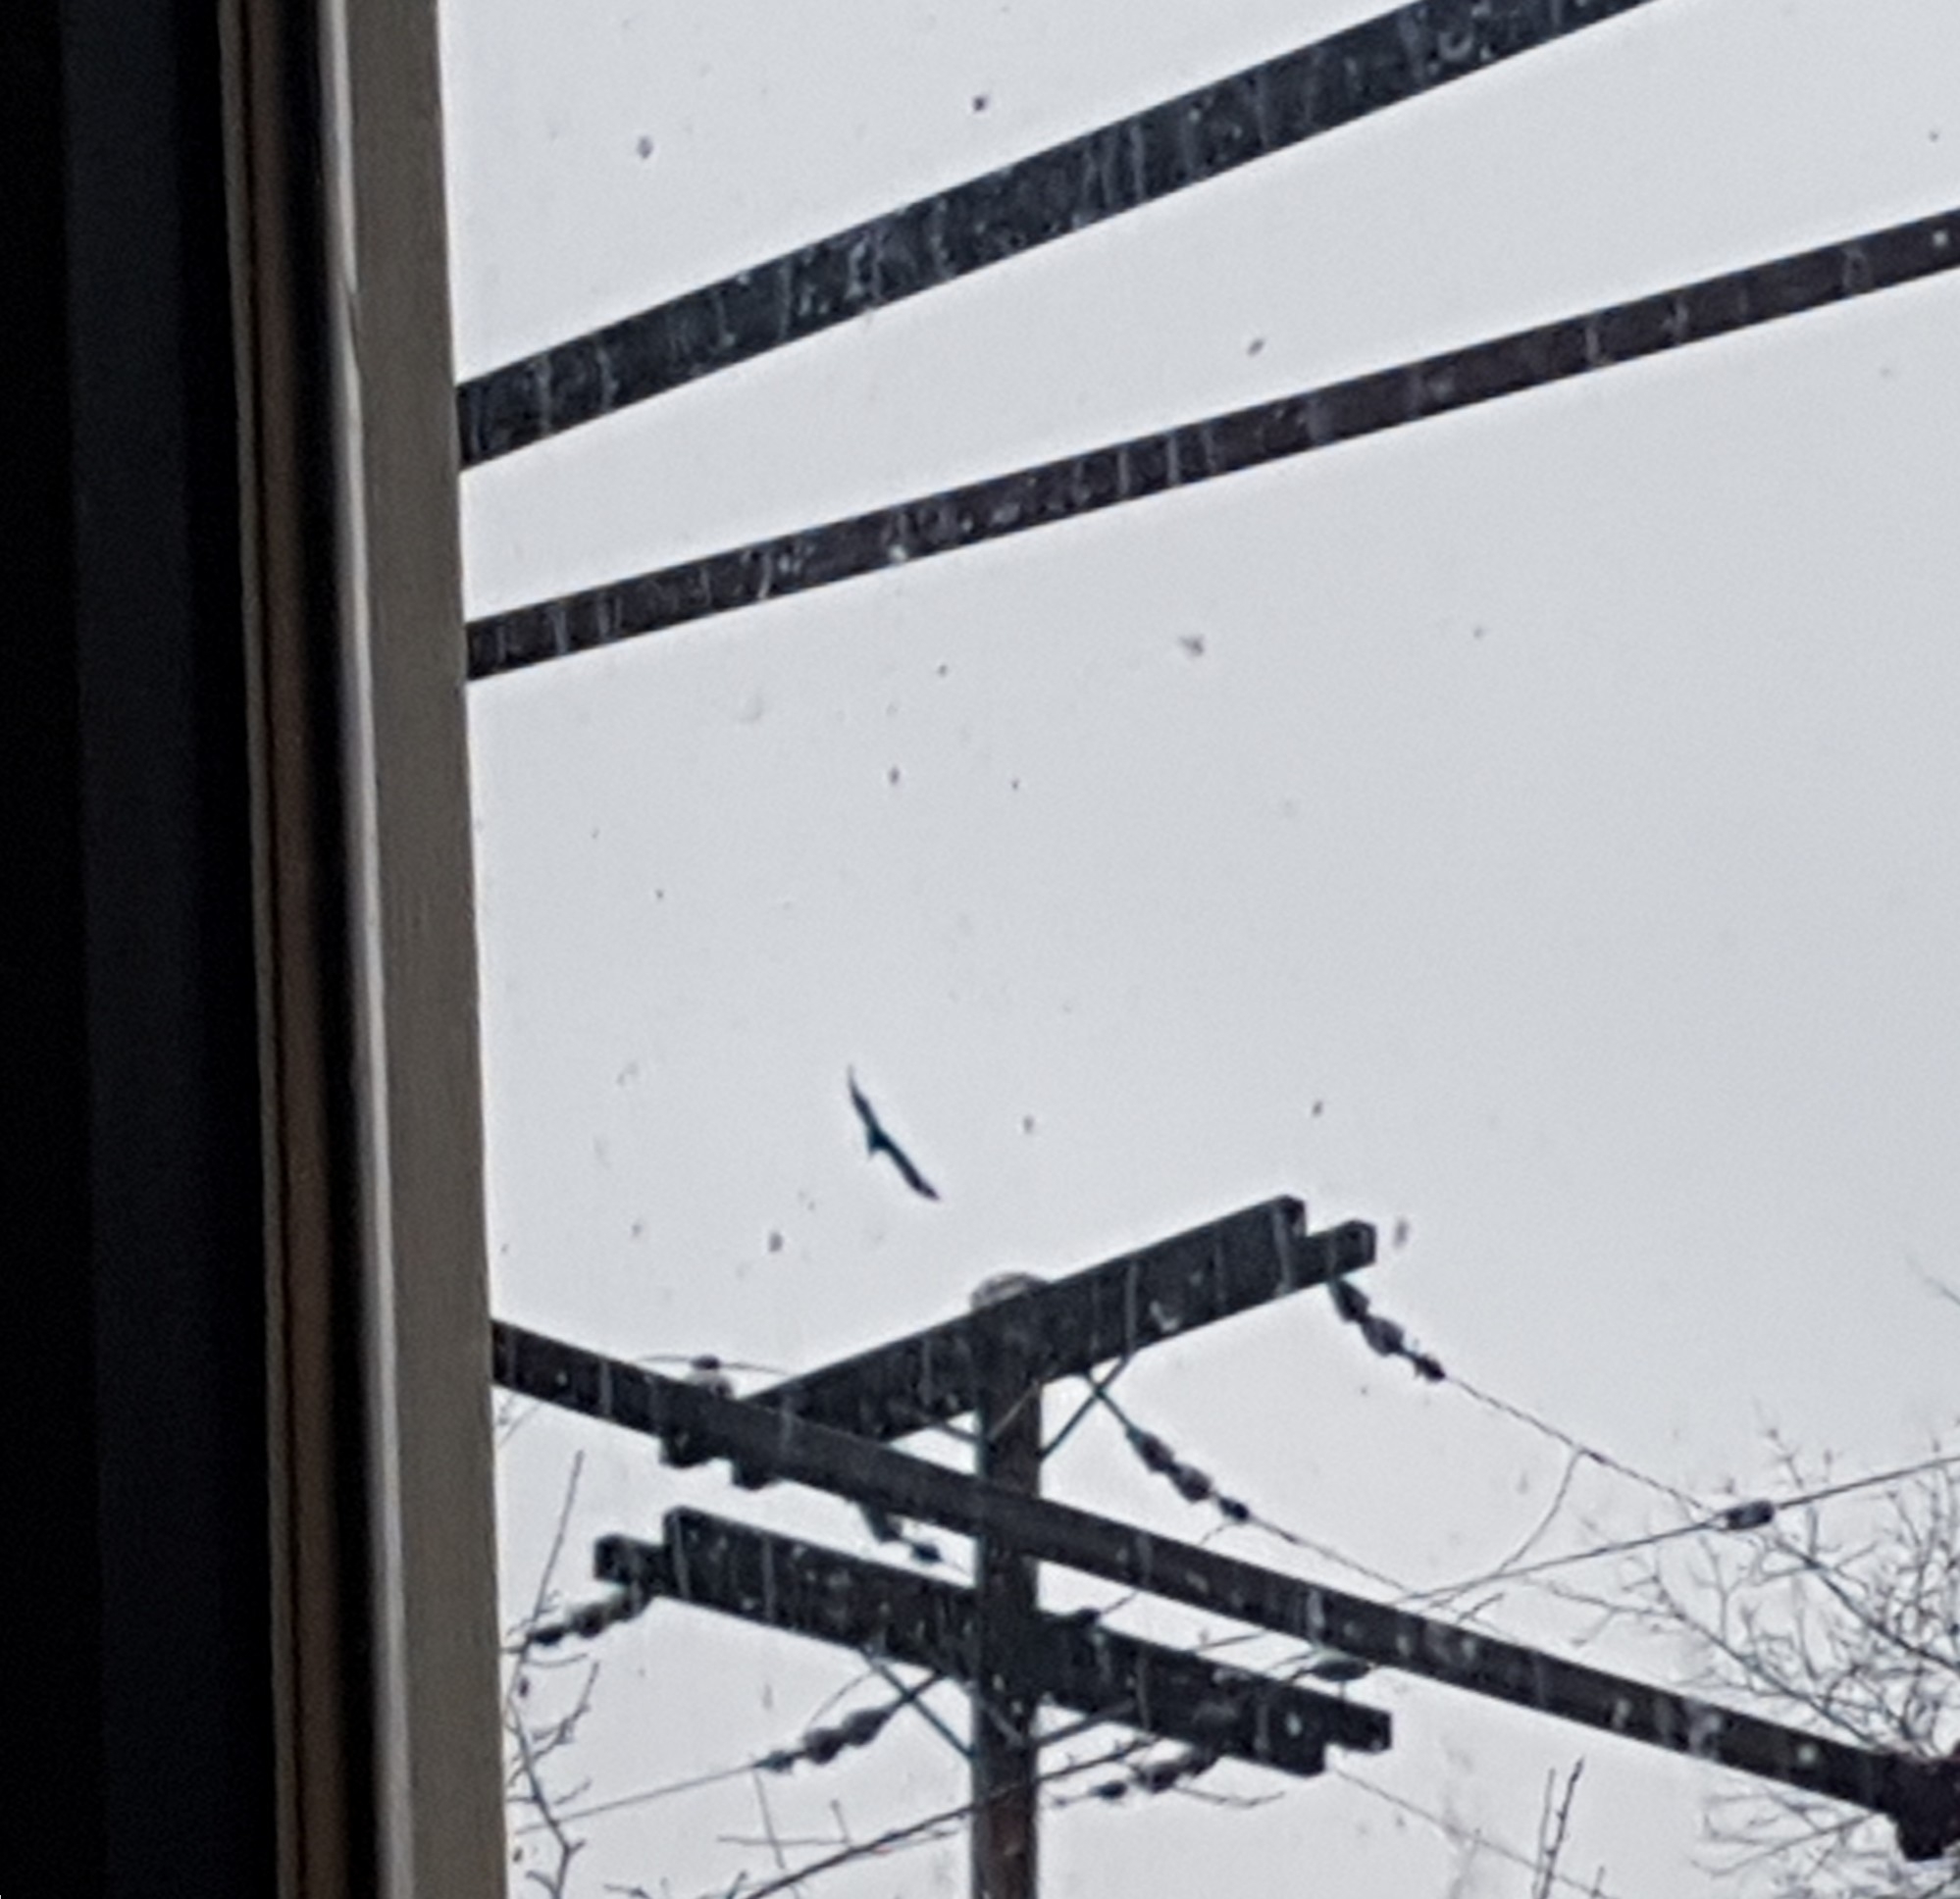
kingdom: Animalia
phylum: Chordata
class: Aves
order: Passeriformes
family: Corvidae
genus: Corvus
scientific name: Corvus corax
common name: Common raven
